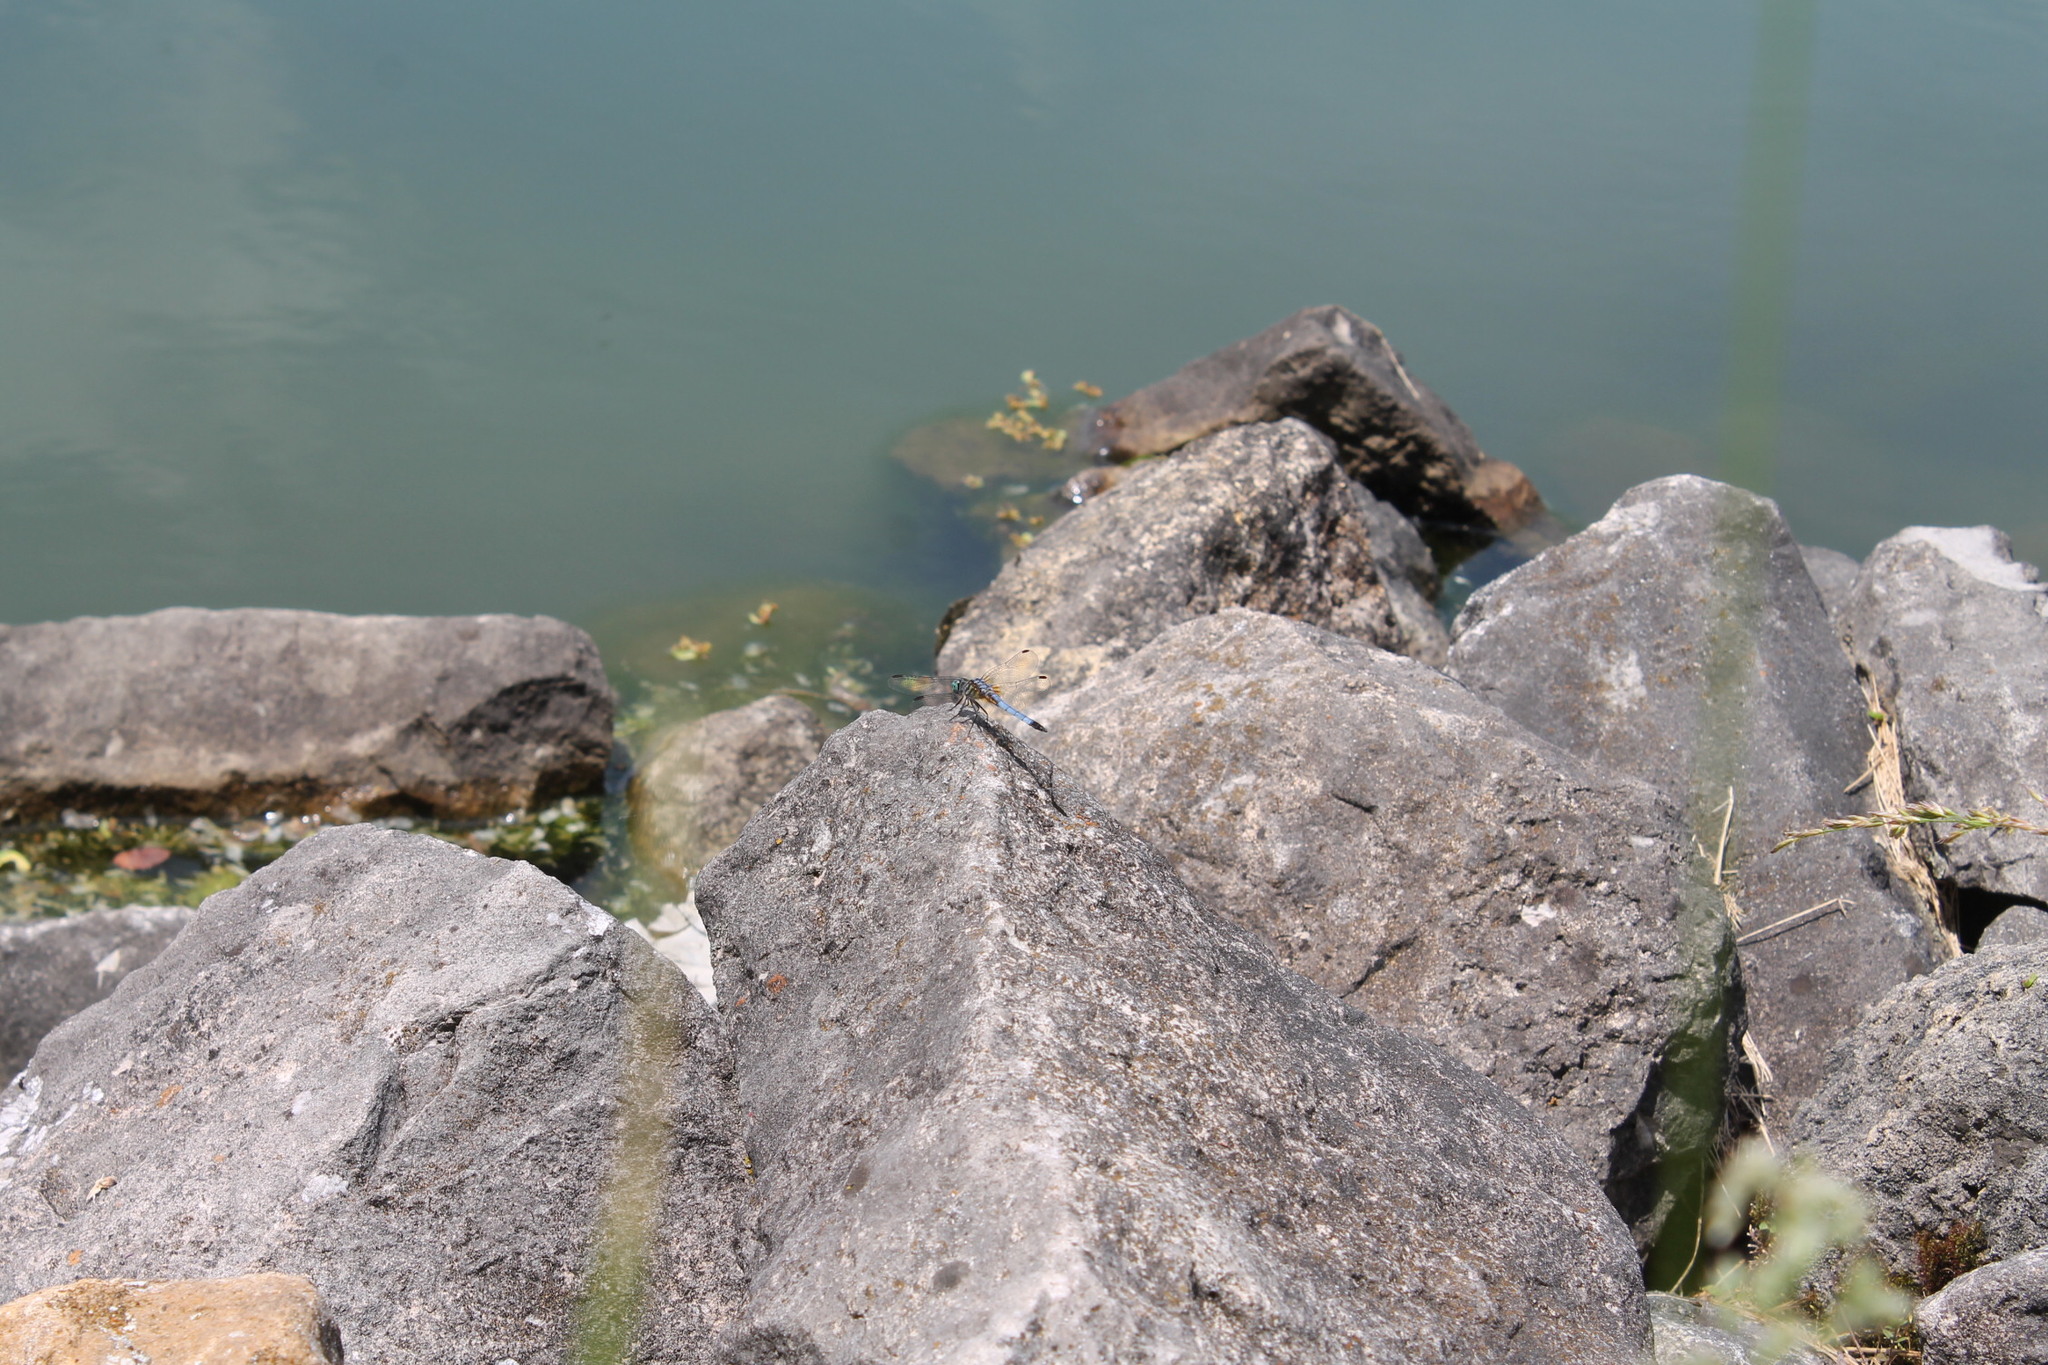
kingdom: Animalia
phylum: Arthropoda
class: Insecta
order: Odonata
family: Libellulidae
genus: Pachydiplax
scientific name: Pachydiplax longipennis
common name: Blue dasher
